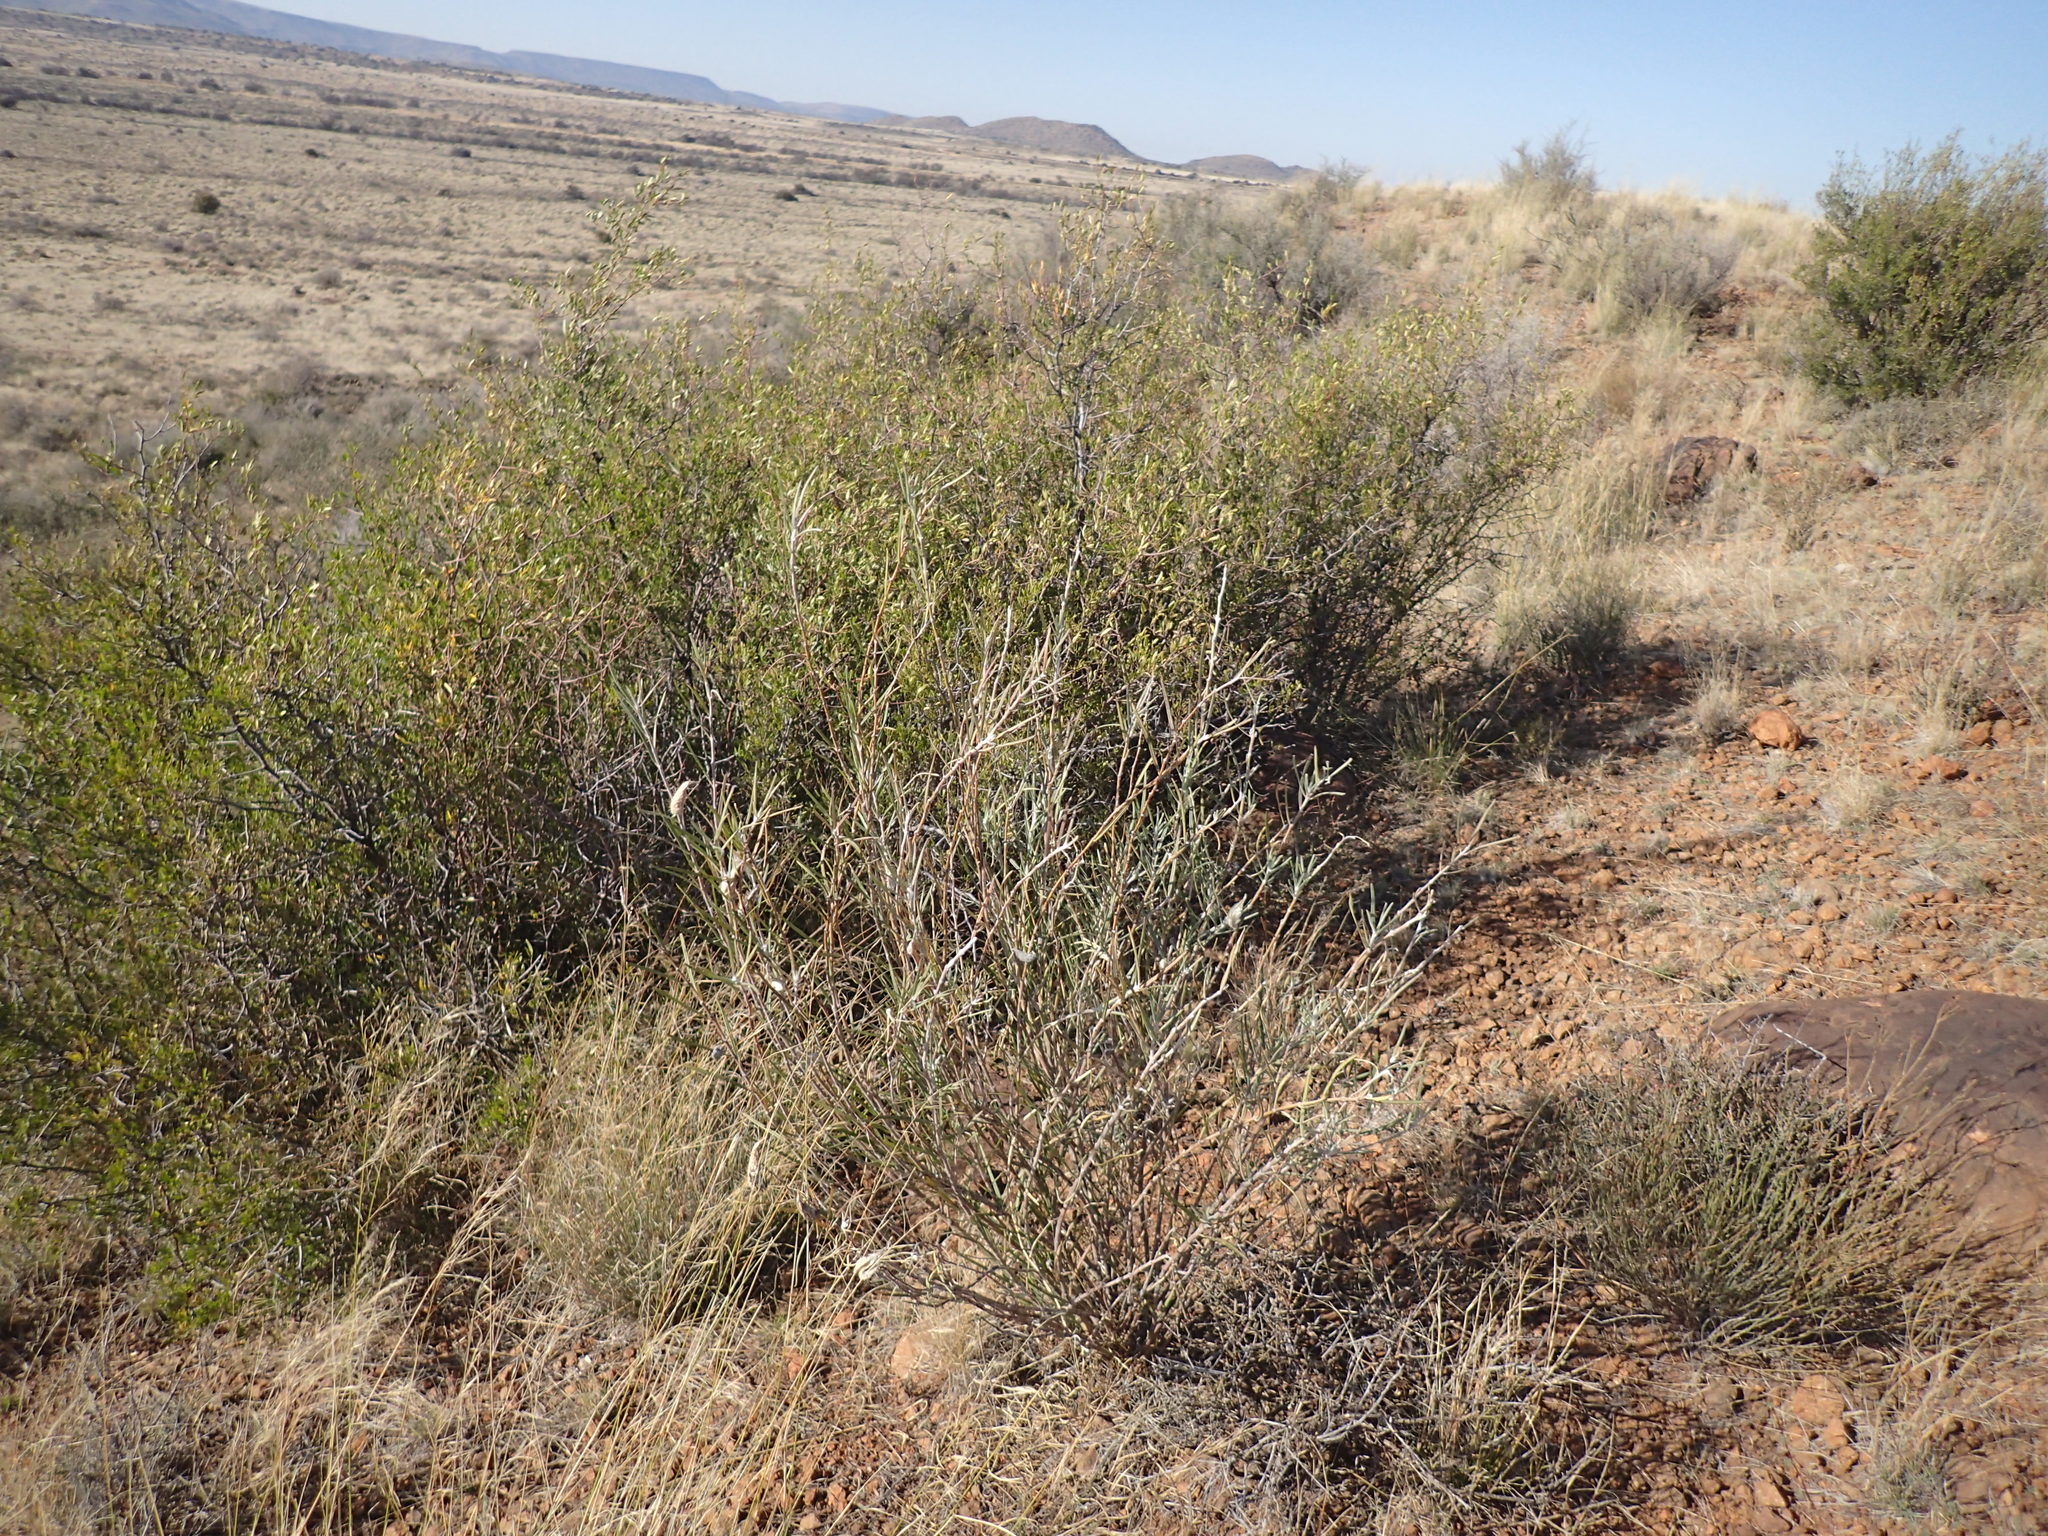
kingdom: Plantae
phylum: Tracheophyta
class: Magnoliopsida
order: Gentianales
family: Apocynaceae
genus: Gomphocarpus
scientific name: Gomphocarpus fruticosus
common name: Milkweed
